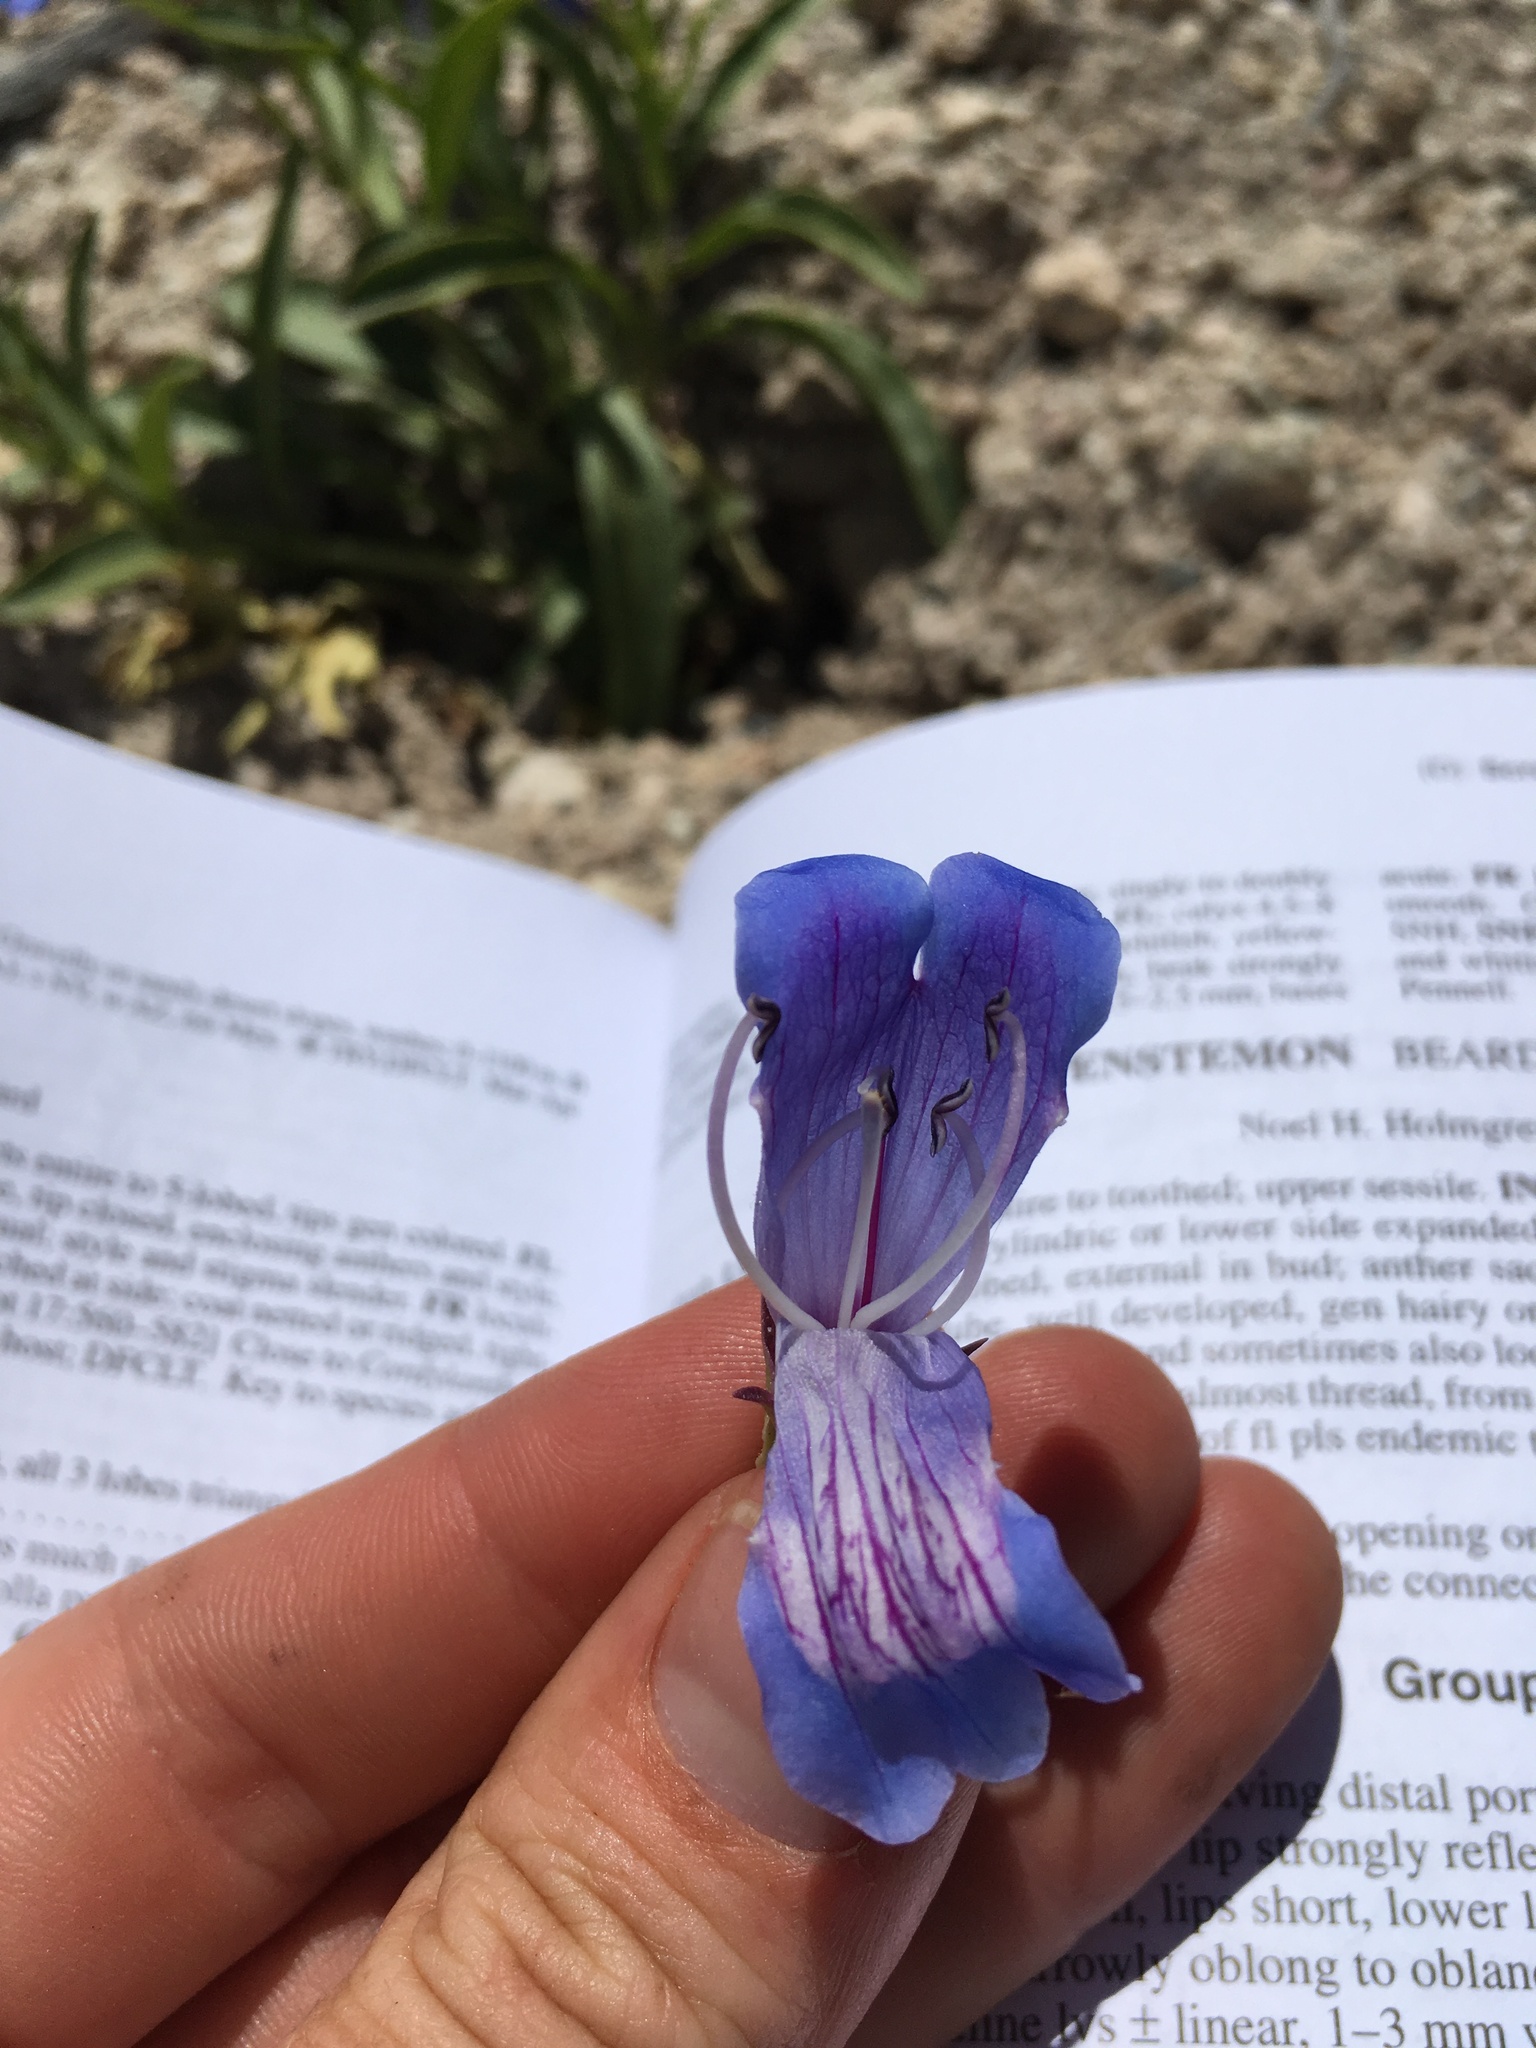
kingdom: Plantae
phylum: Tracheophyta
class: Magnoliopsida
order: Lamiales
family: Plantaginaceae
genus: Penstemon
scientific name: Penstemon speciosus
